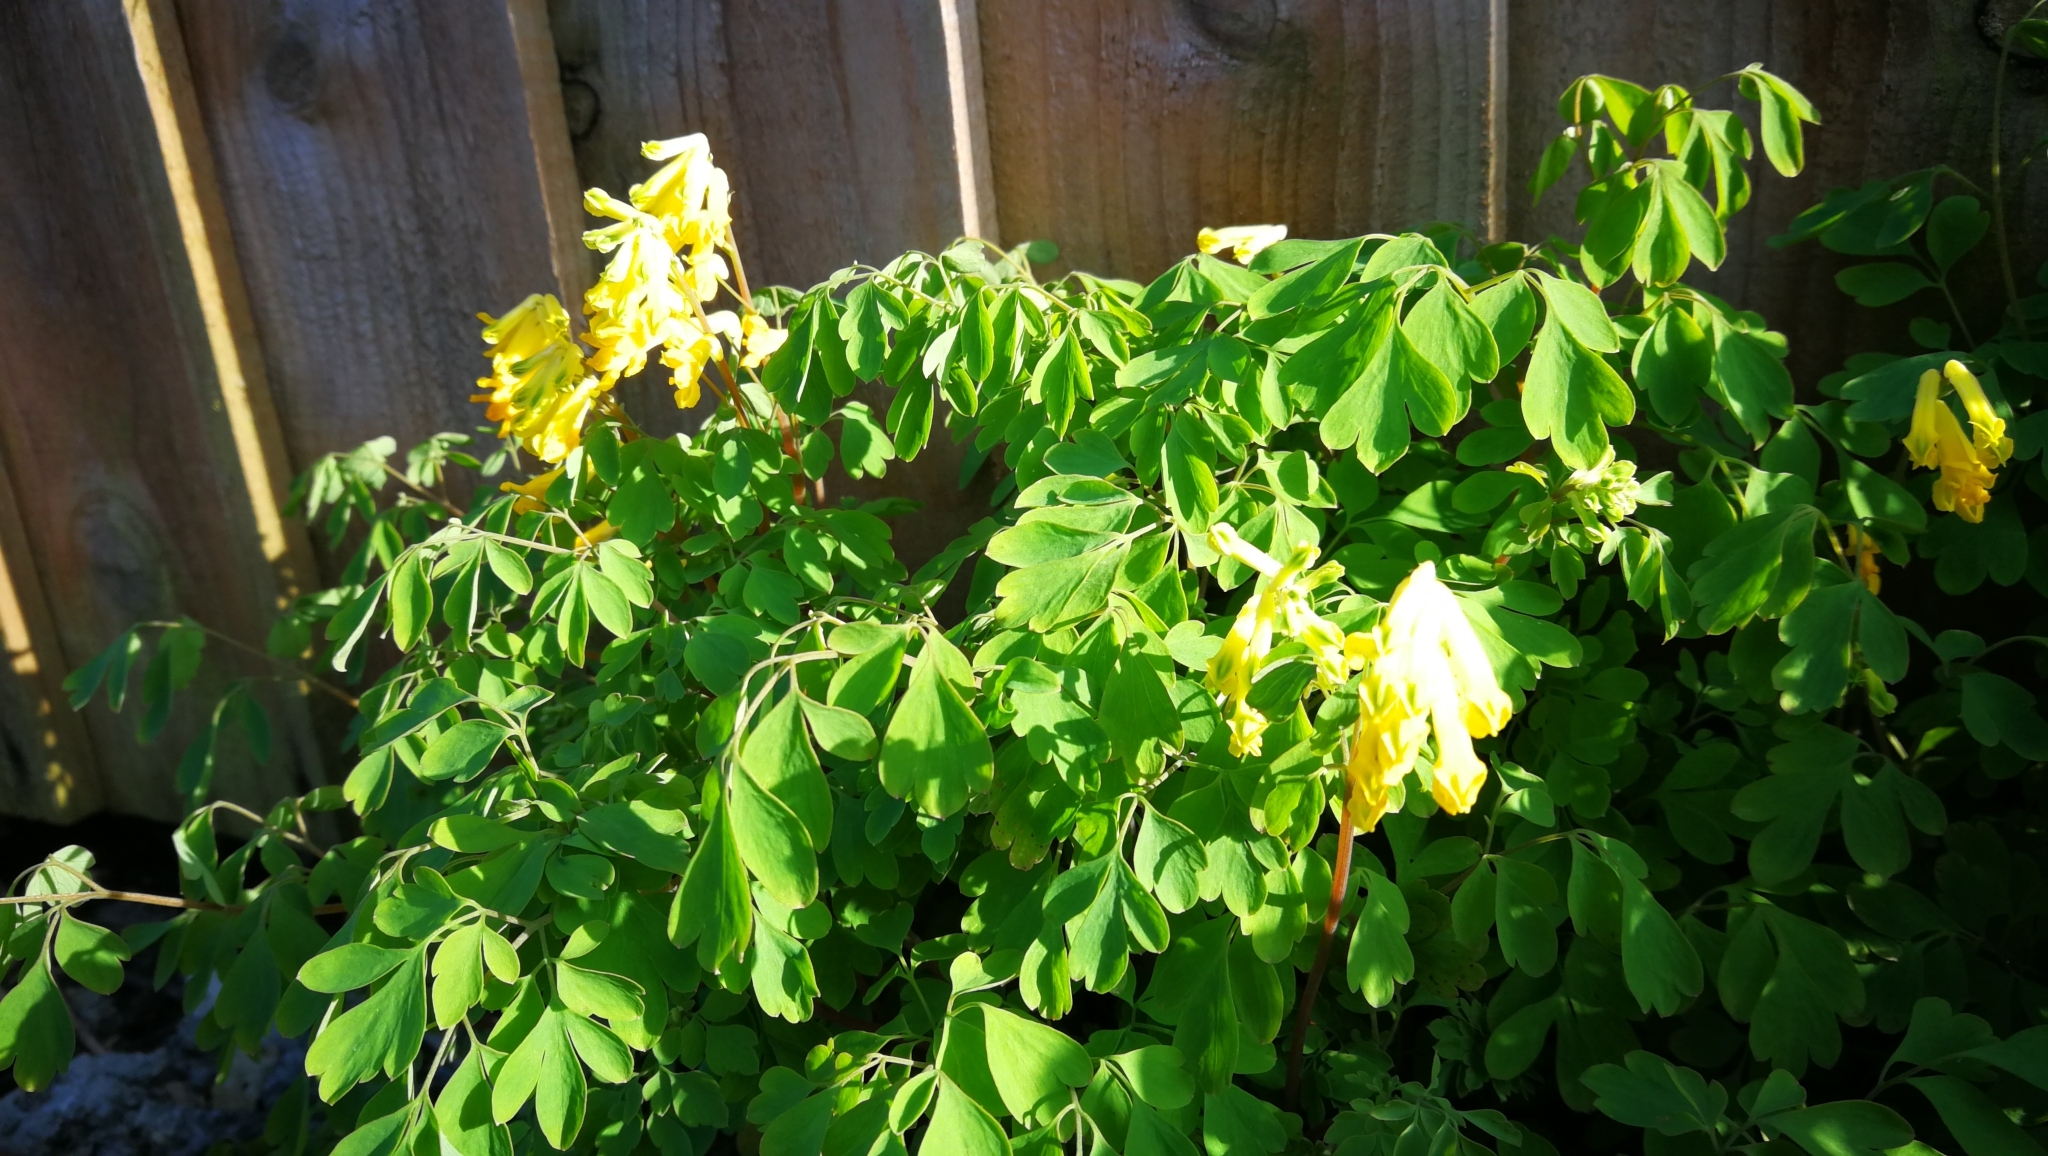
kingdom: Plantae
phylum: Tracheophyta
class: Magnoliopsida
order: Ranunculales
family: Papaveraceae
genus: Pseudofumaria
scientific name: Pseudofumaria lutea
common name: Yellow corydalis
